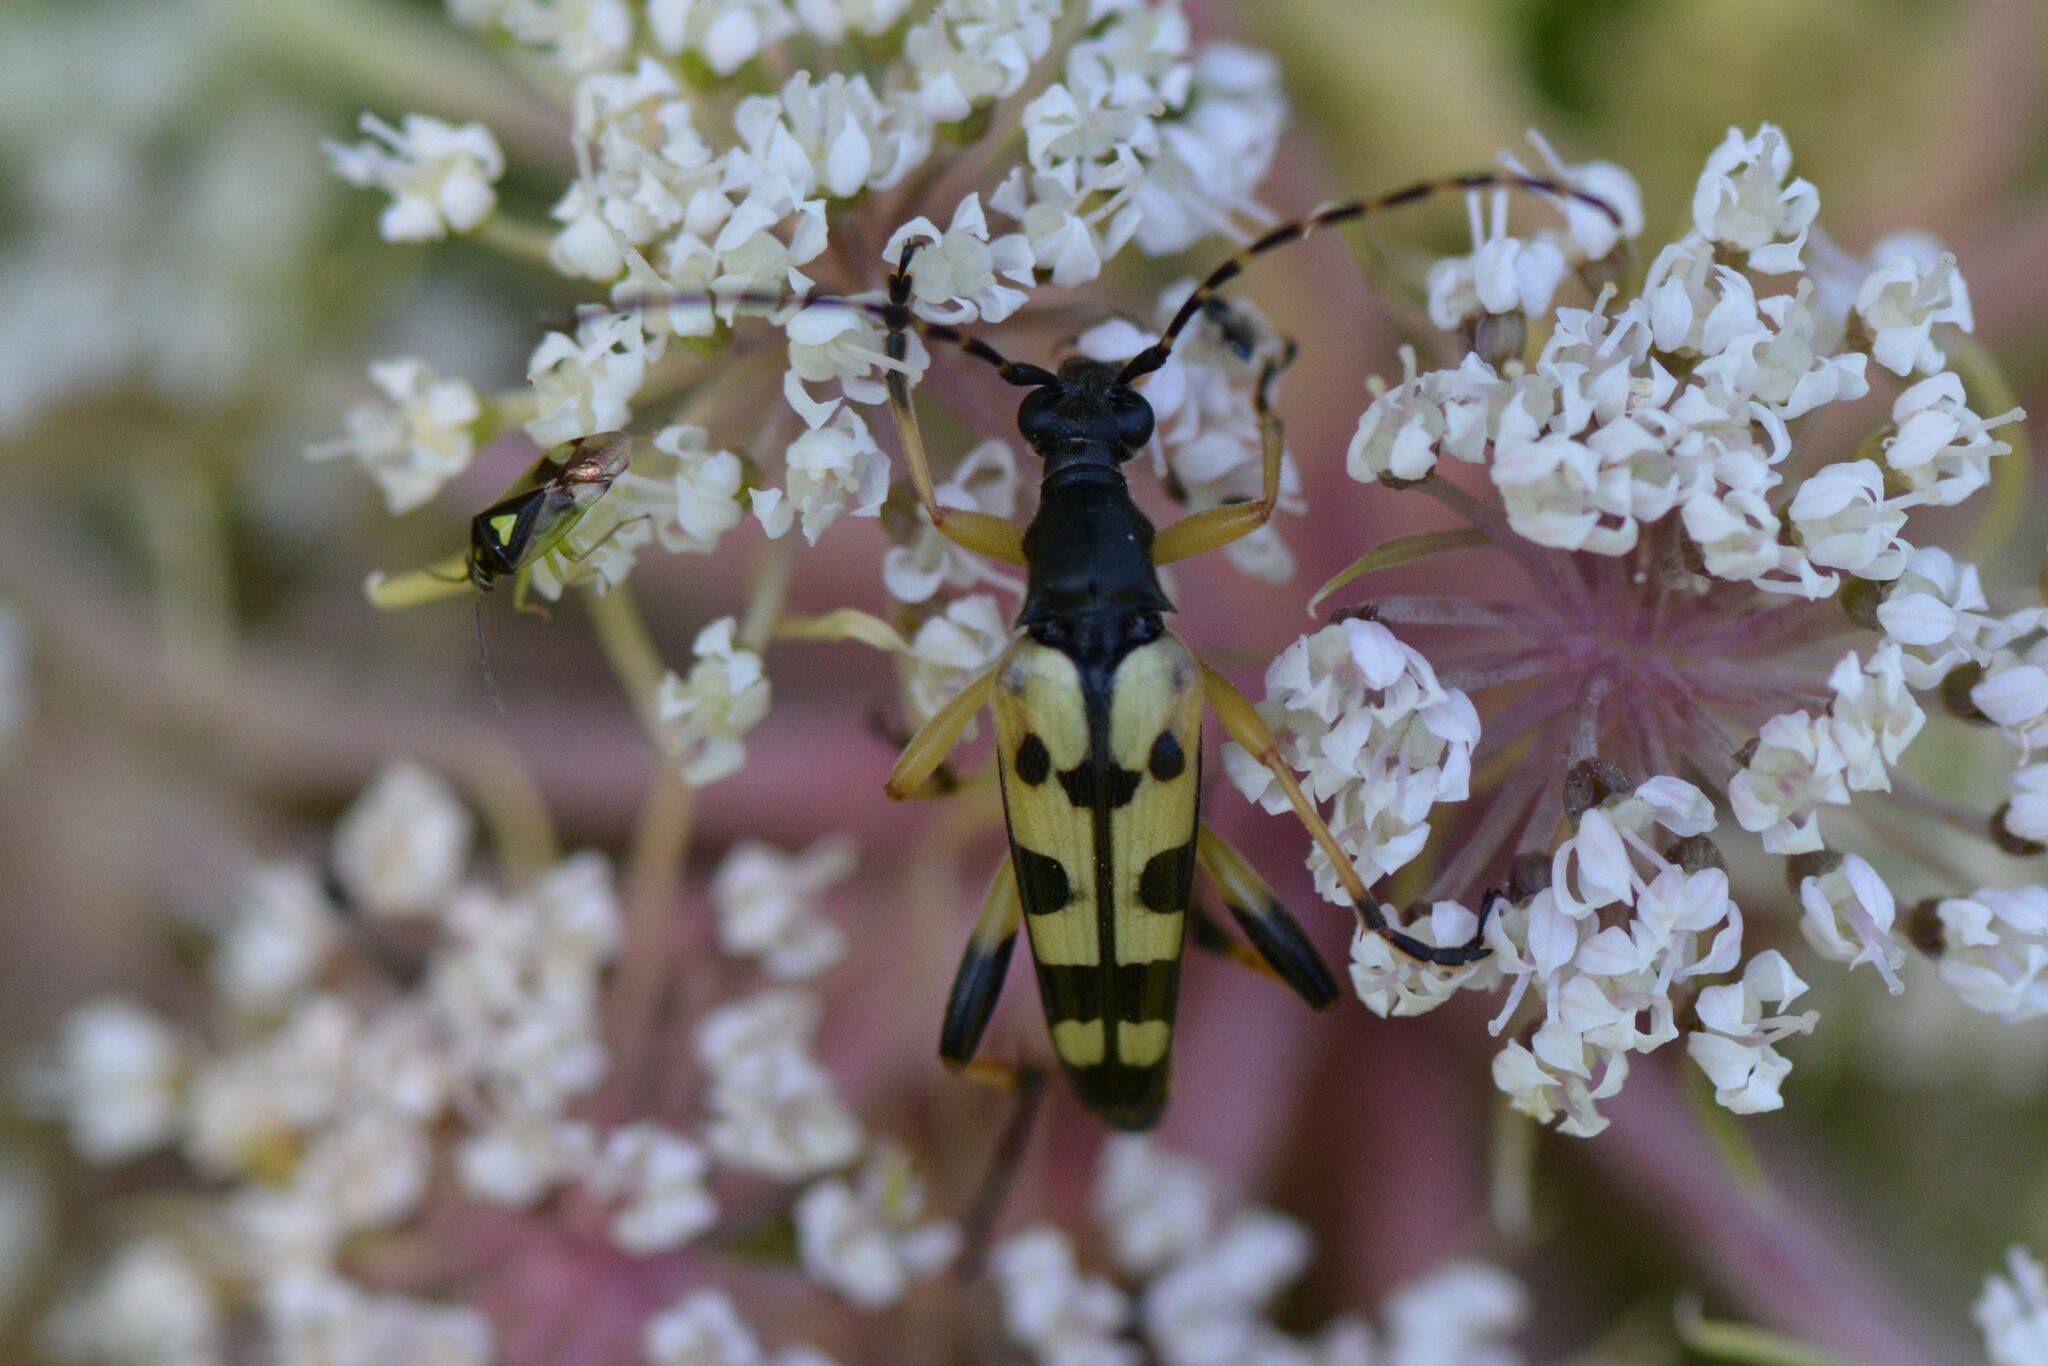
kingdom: Animalia
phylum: Arthropoda
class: Insecta
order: Coleoptera
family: Cerambycidae
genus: Rutpela
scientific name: Rutpela maculata
